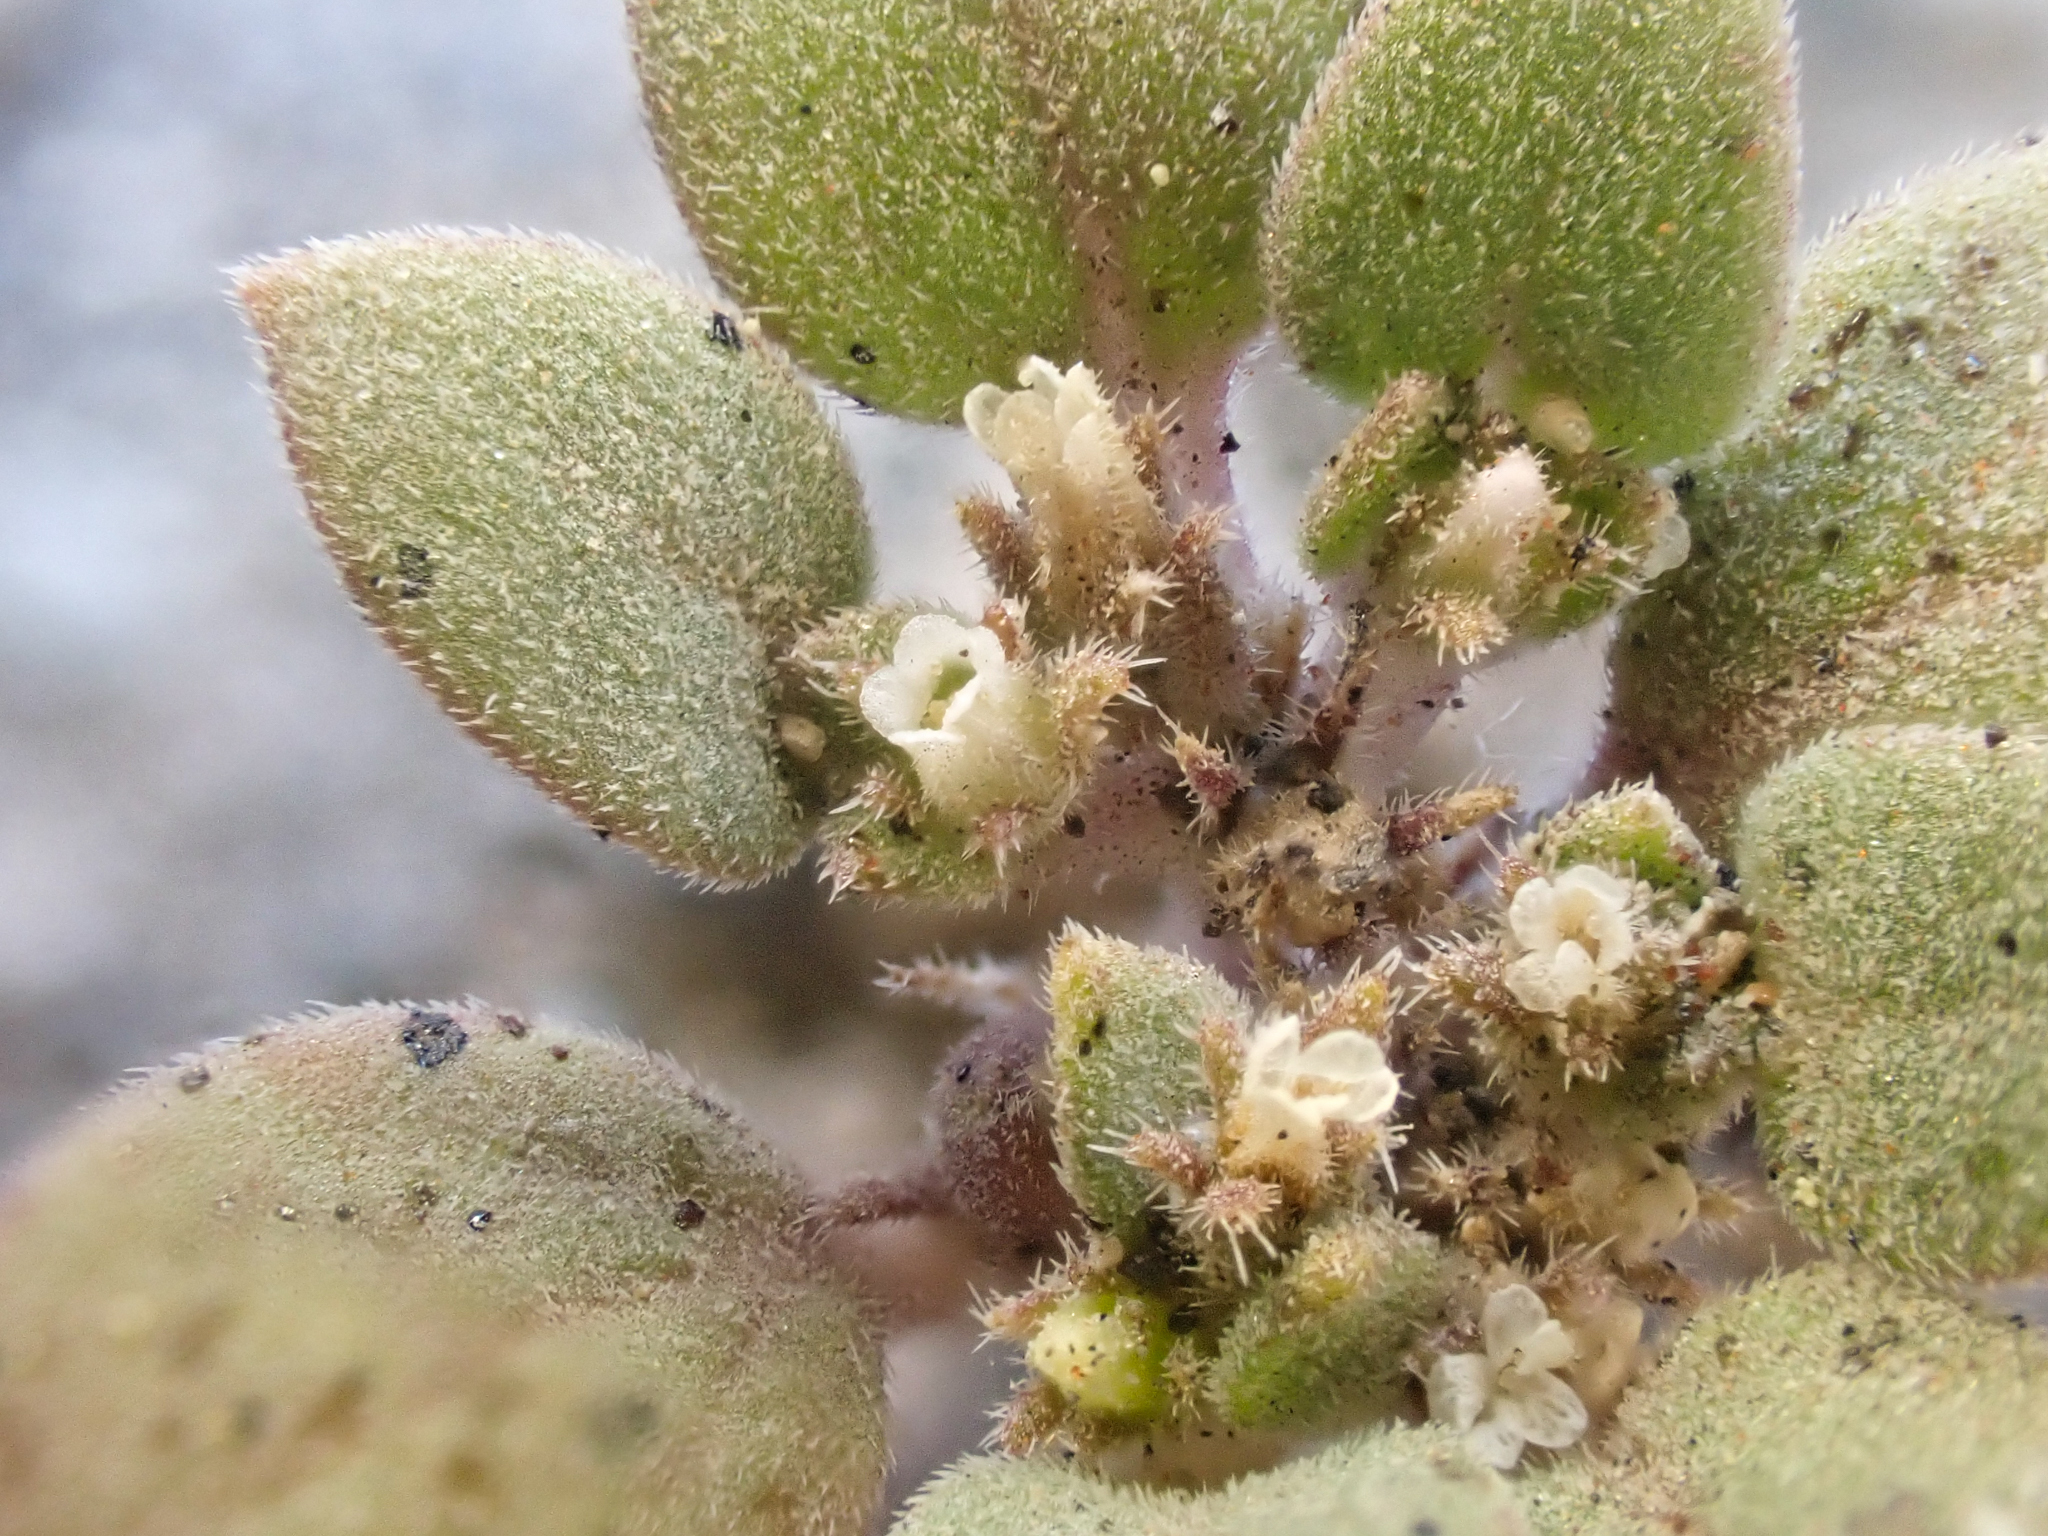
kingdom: Plantae
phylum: Tracheophyta
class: Magnoliopsida
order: Boraginales
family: Hydrophyllaceae
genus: Phacelia
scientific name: Phacelia cookei
